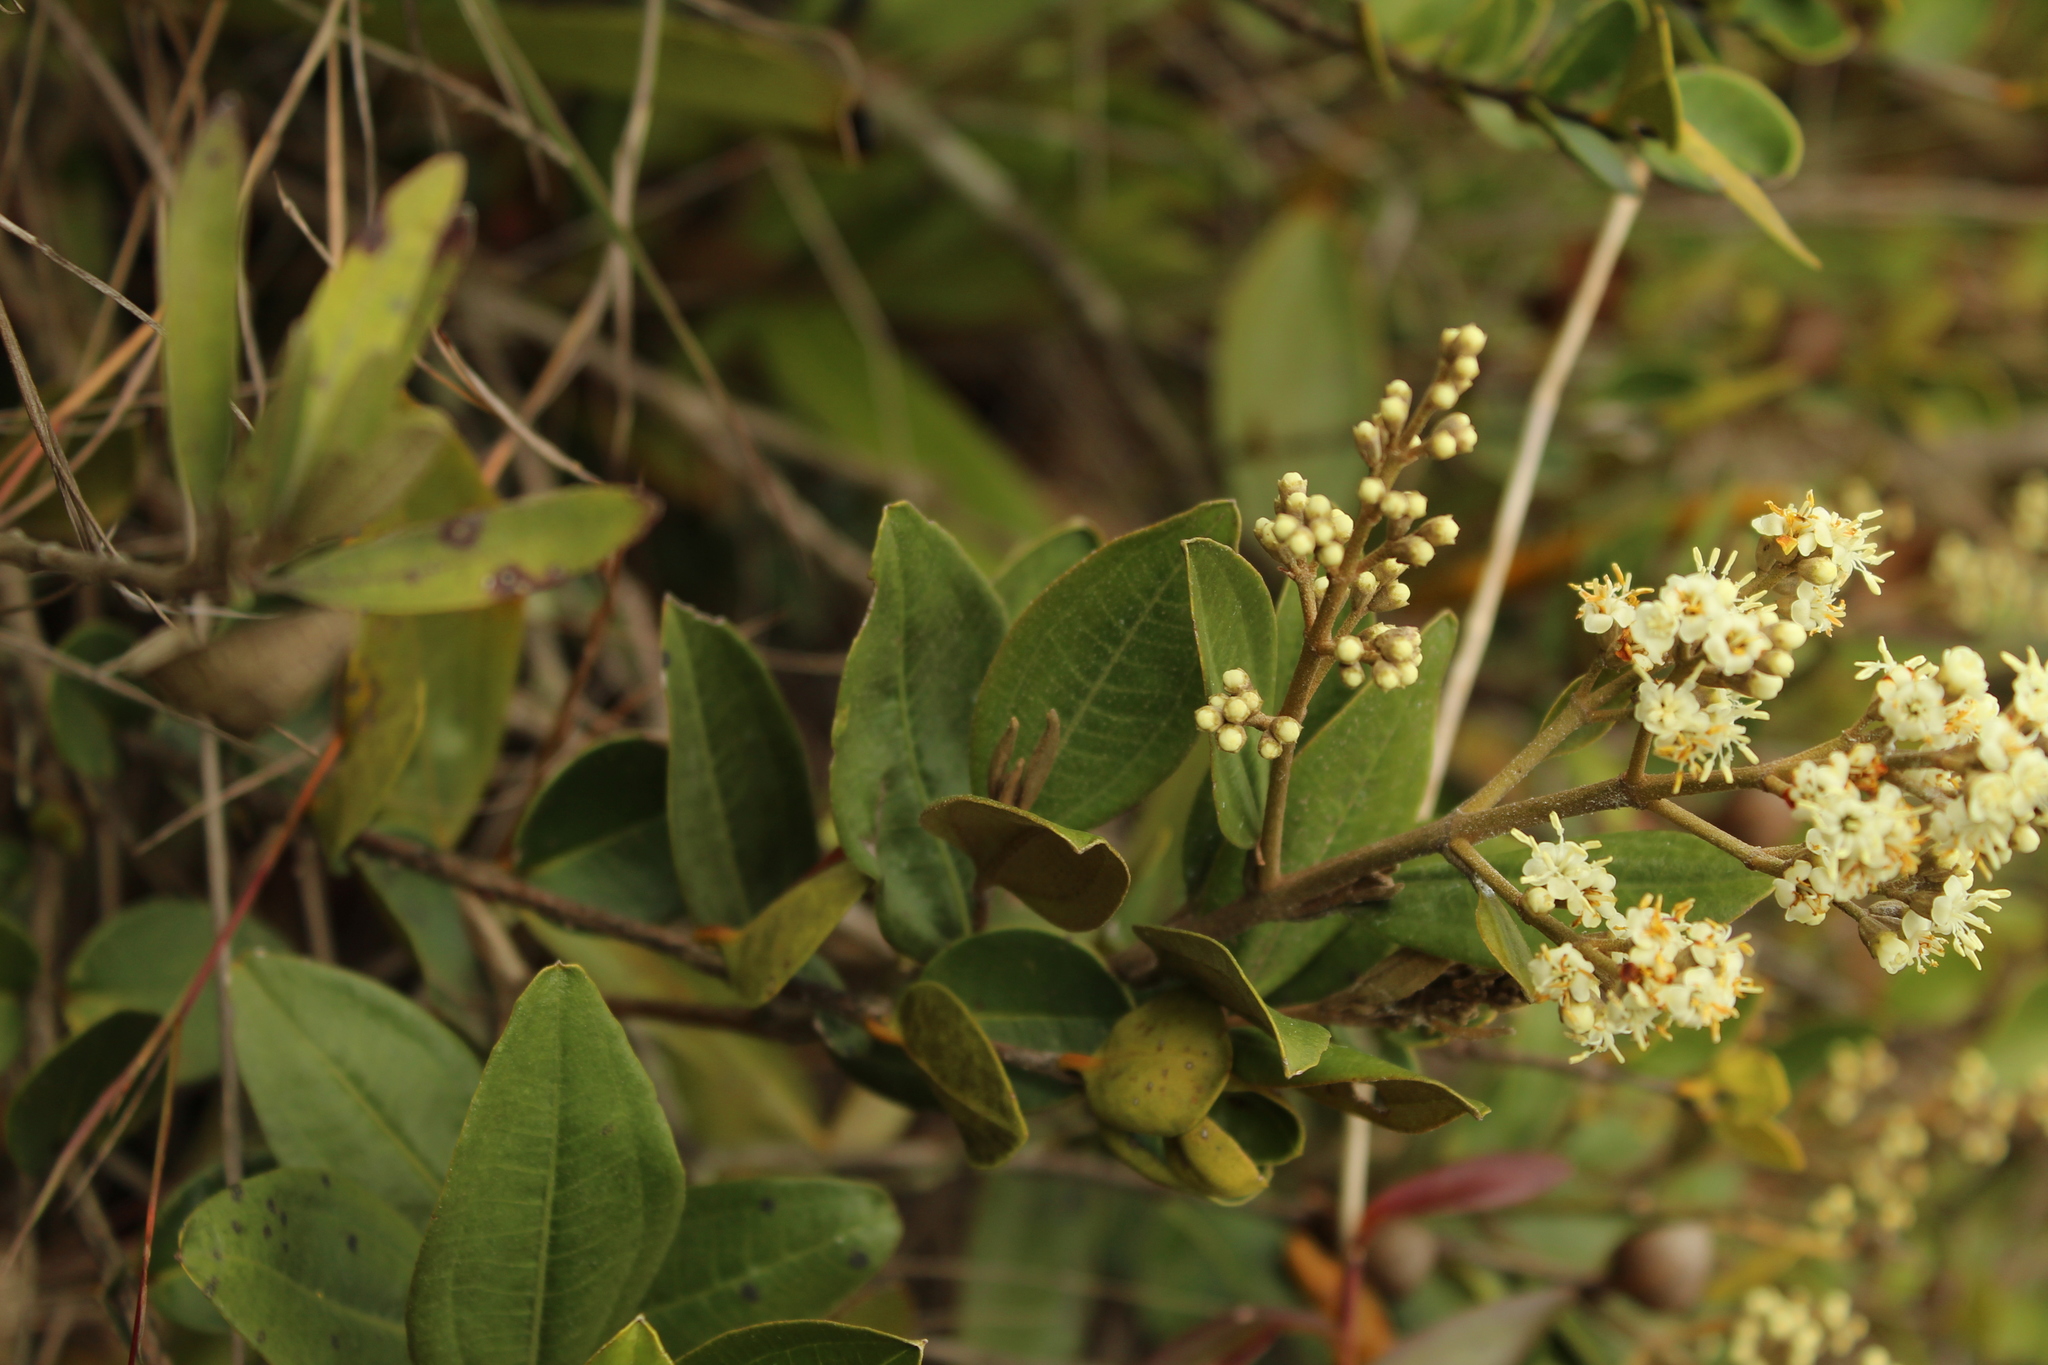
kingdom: Plantae
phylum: Tracheophyta
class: Magnoliopsida
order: Myrtales
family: Melastomataceae
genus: Miconia
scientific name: Miconia squamulosa
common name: Squamulose maya
